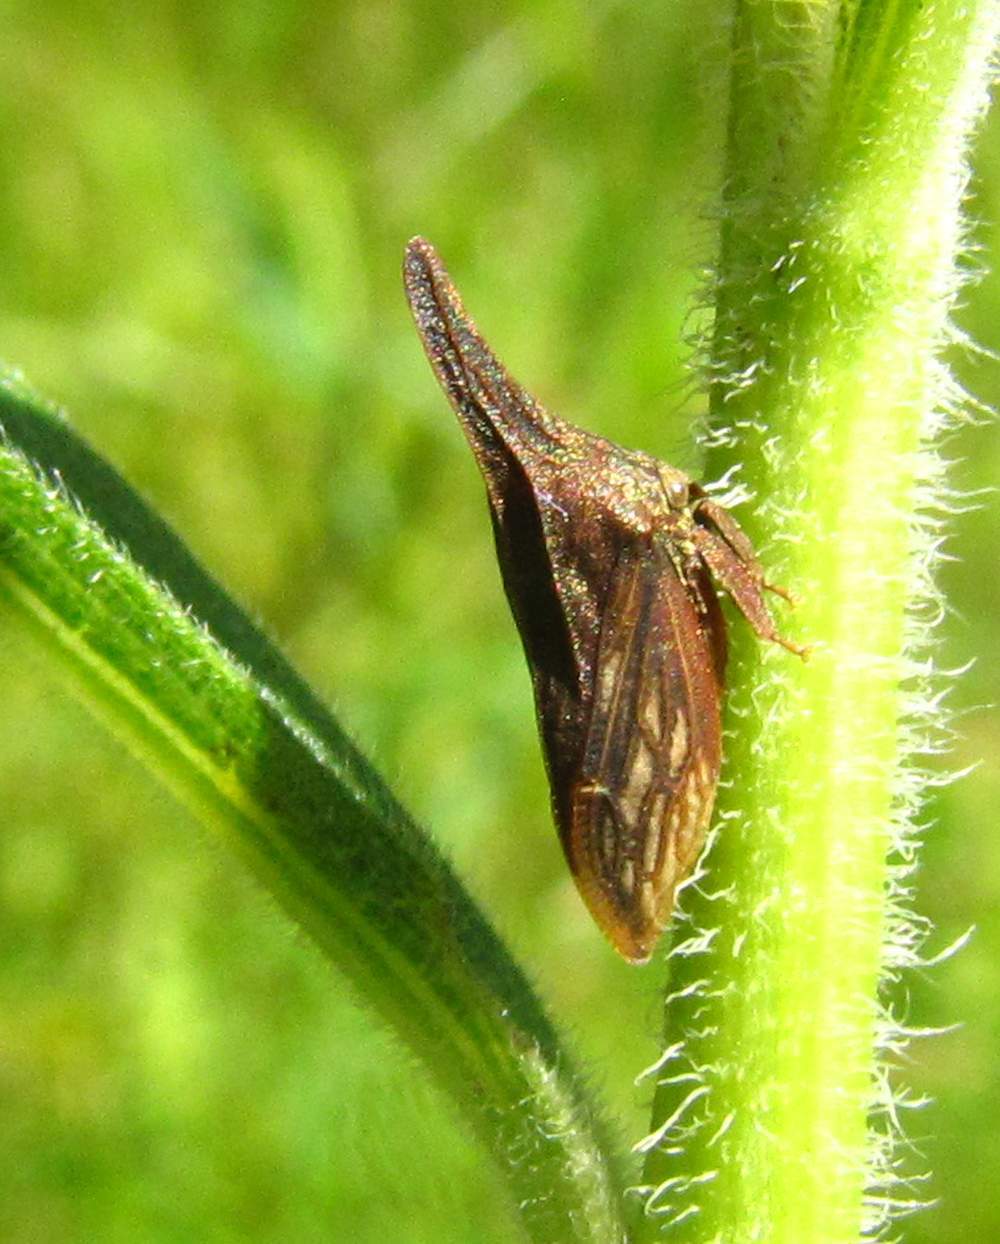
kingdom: Animalia
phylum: Arthropoda
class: Insecta
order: Hemiptera
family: Membracidae
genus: Enchenopa
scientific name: Enchenopa latipes
